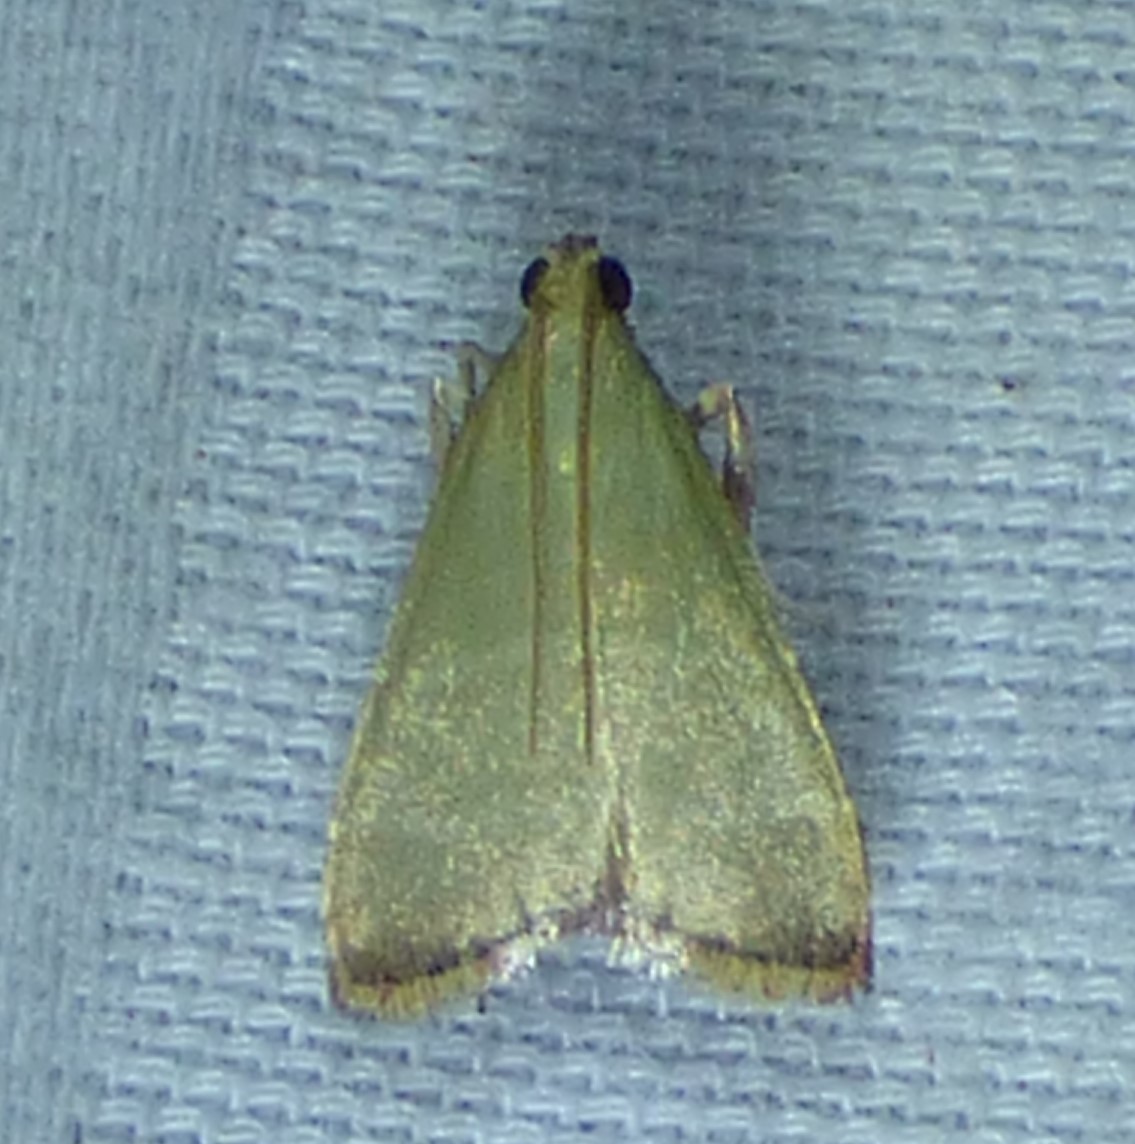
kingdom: Animalia
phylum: Arthropoda
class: Insecta
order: Lepidoptera
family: Pyralidae
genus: Arta
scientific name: Arta olivalis
